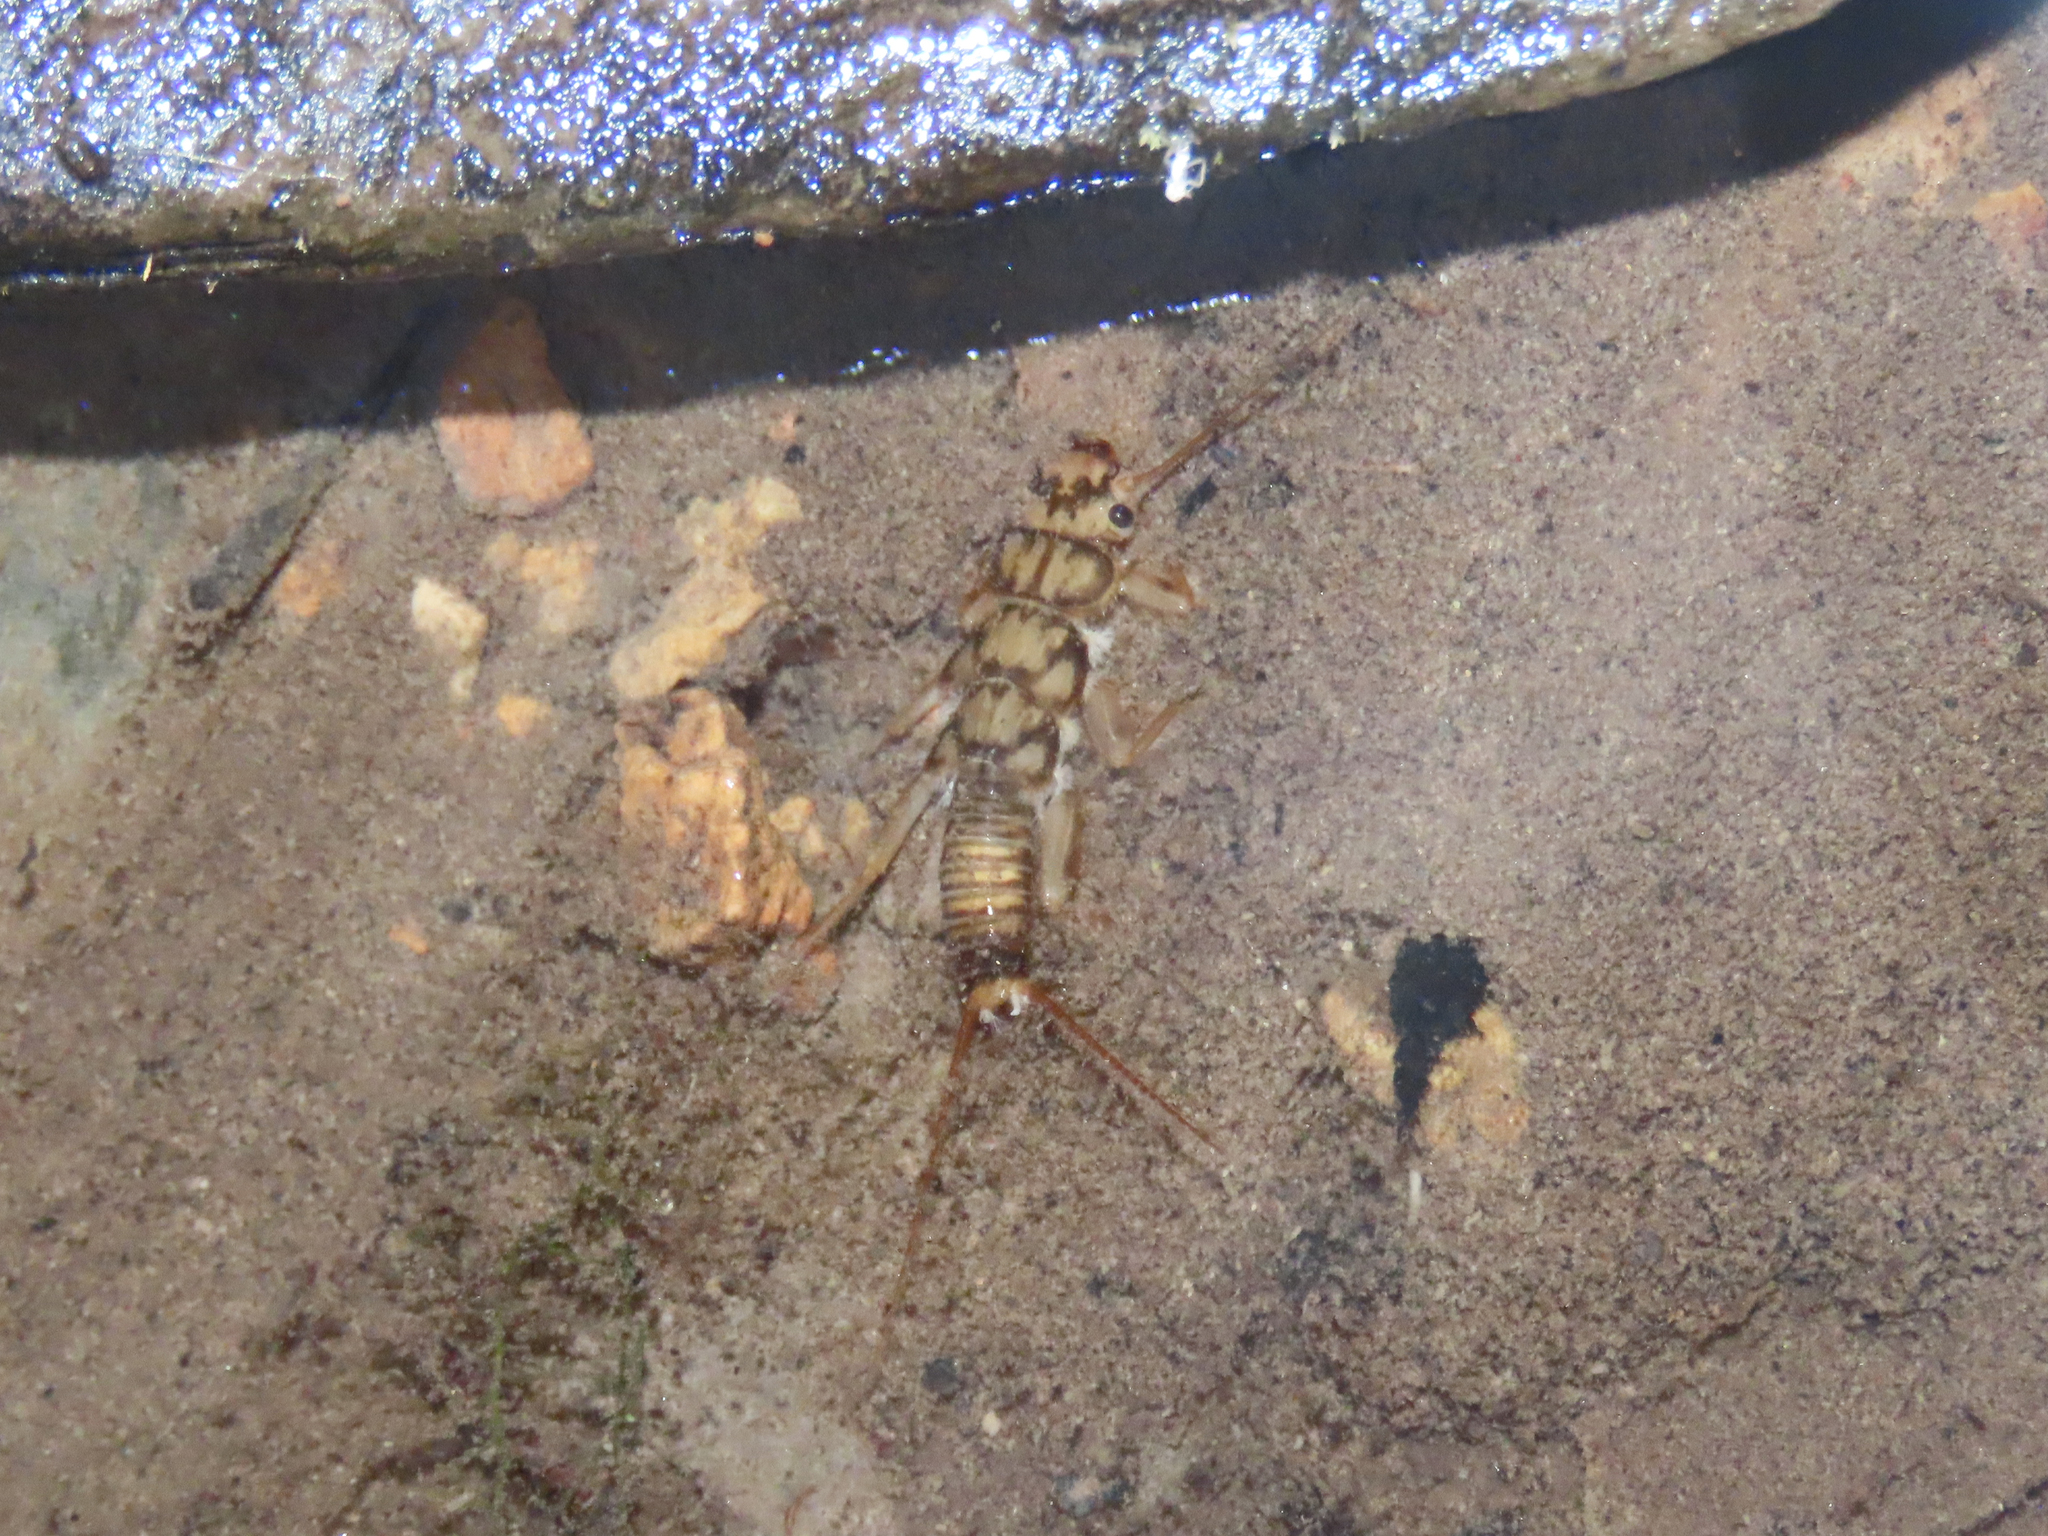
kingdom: Animalia
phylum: Arthropoda
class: Insecta
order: Plecoptera
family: Perlidae
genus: Eccoptura
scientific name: Eccoptura xanthenes
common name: Yellow stone
